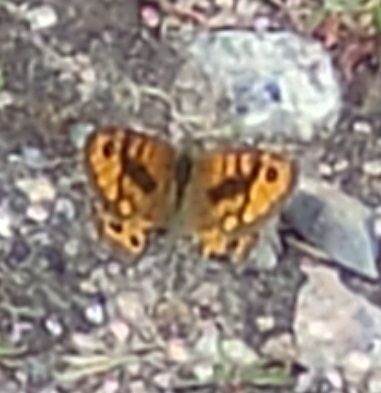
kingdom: Animalia
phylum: Arthropoda
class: Insecta
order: Lepidoptera
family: Nymphalidae
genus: Pararge
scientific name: Pararge Lasiommata megera
